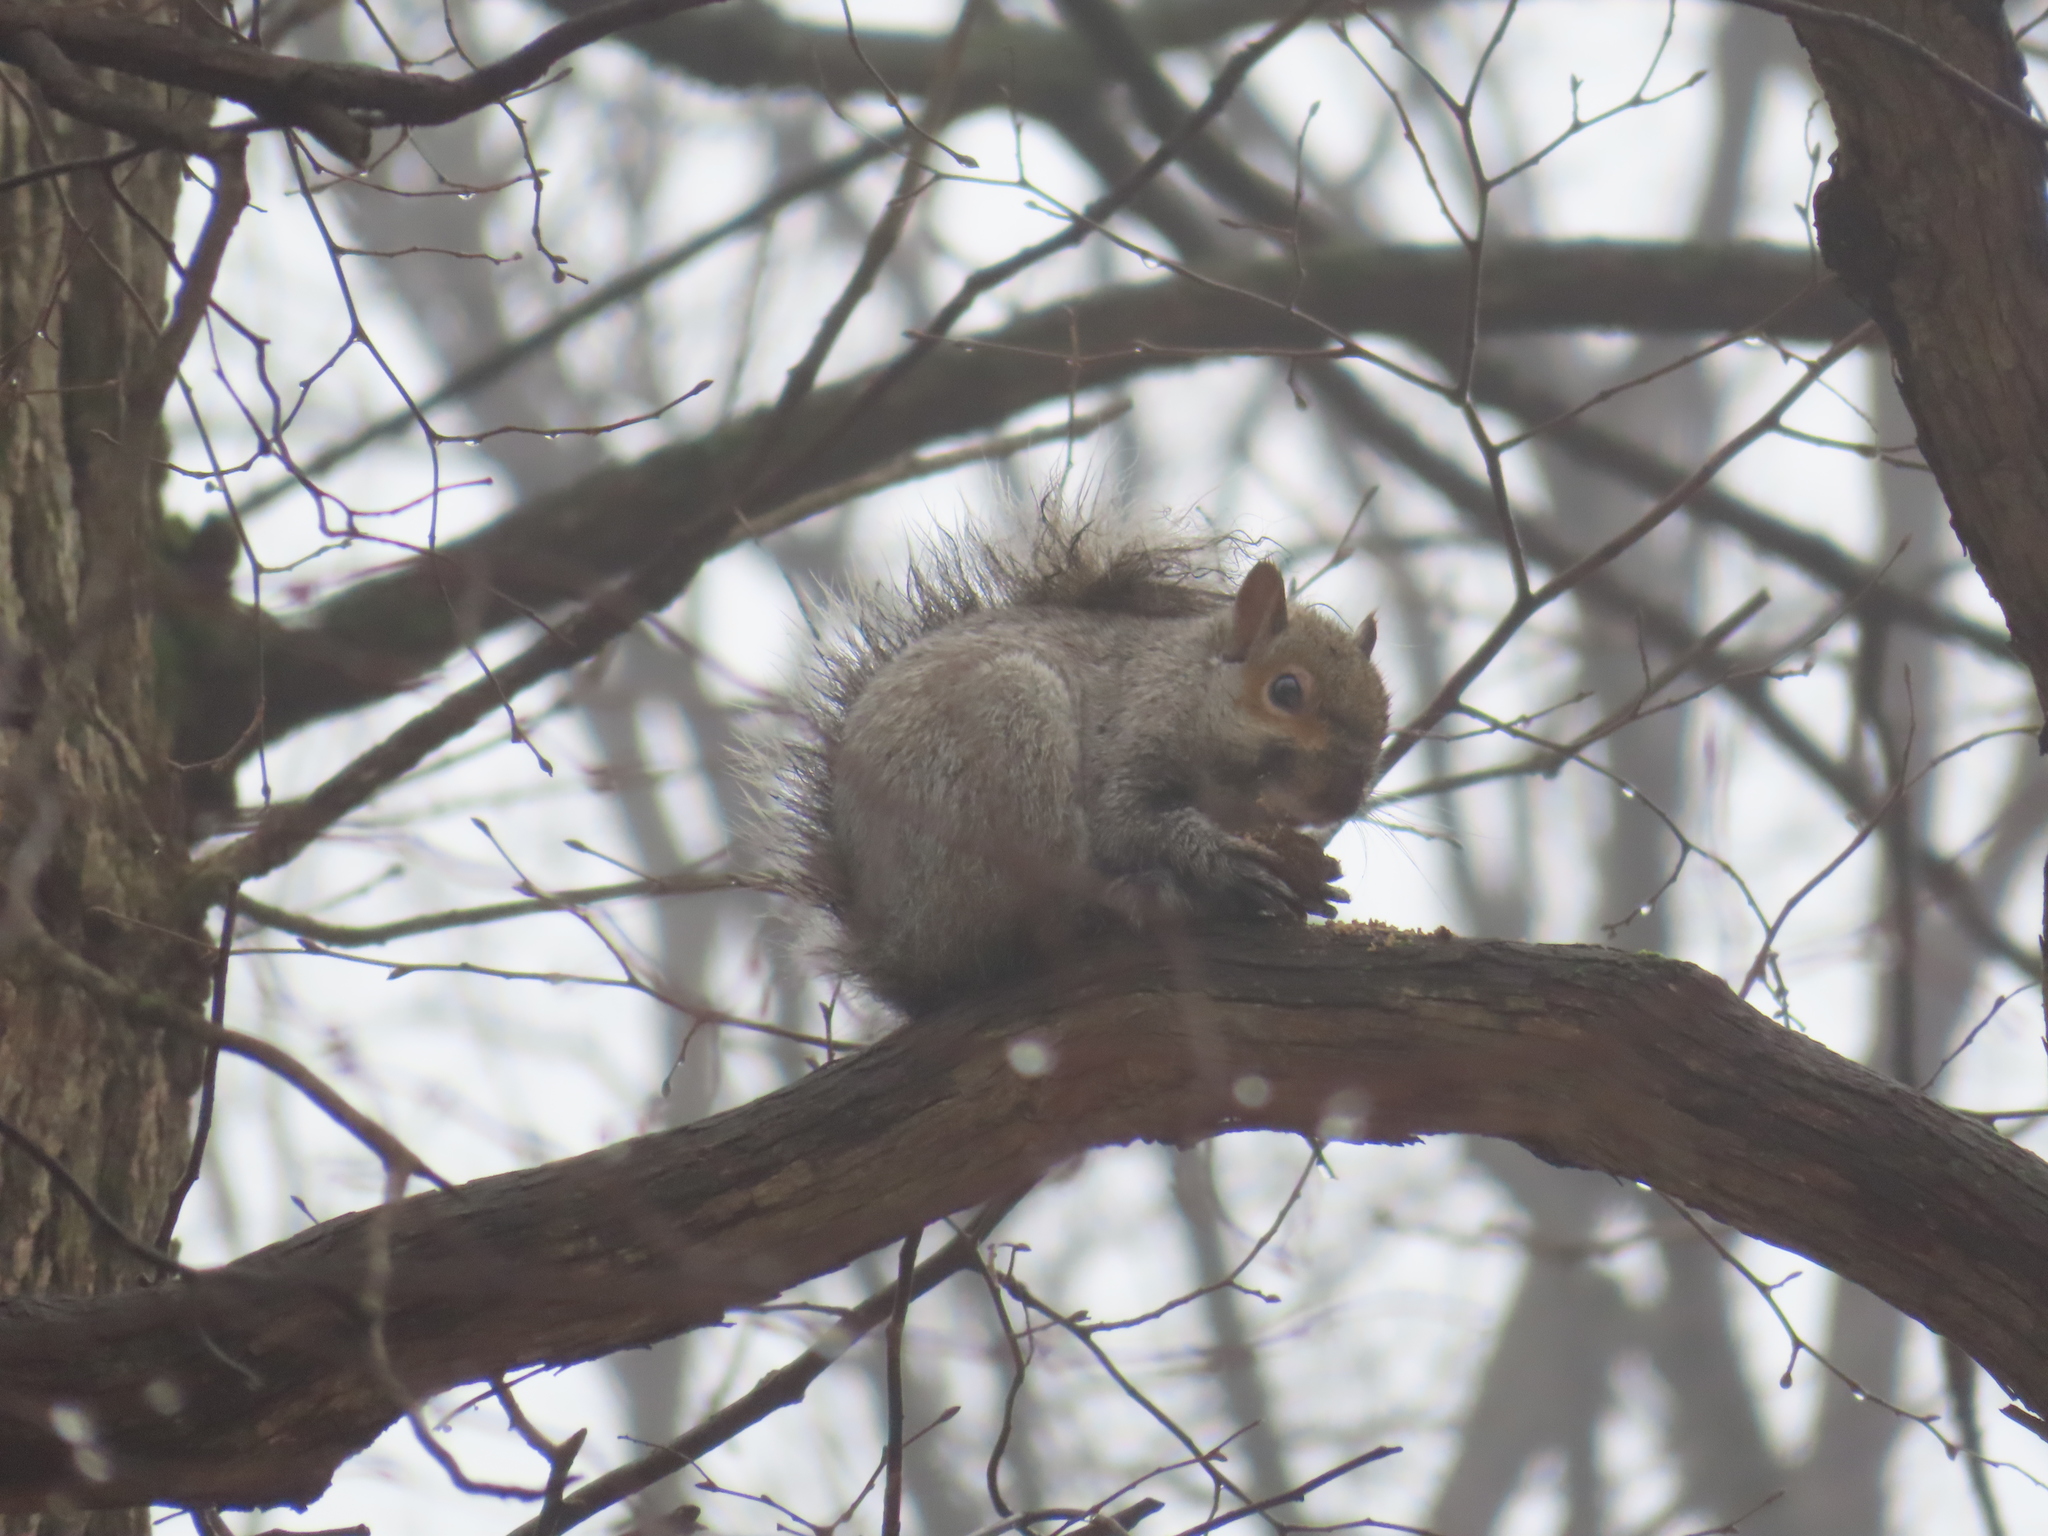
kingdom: Animalia
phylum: Chordata
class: Mammalia
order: Rodentia
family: Sciuridae
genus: Sciurus
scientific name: Sciurus carolinensis
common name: Eastern gray squirrel
